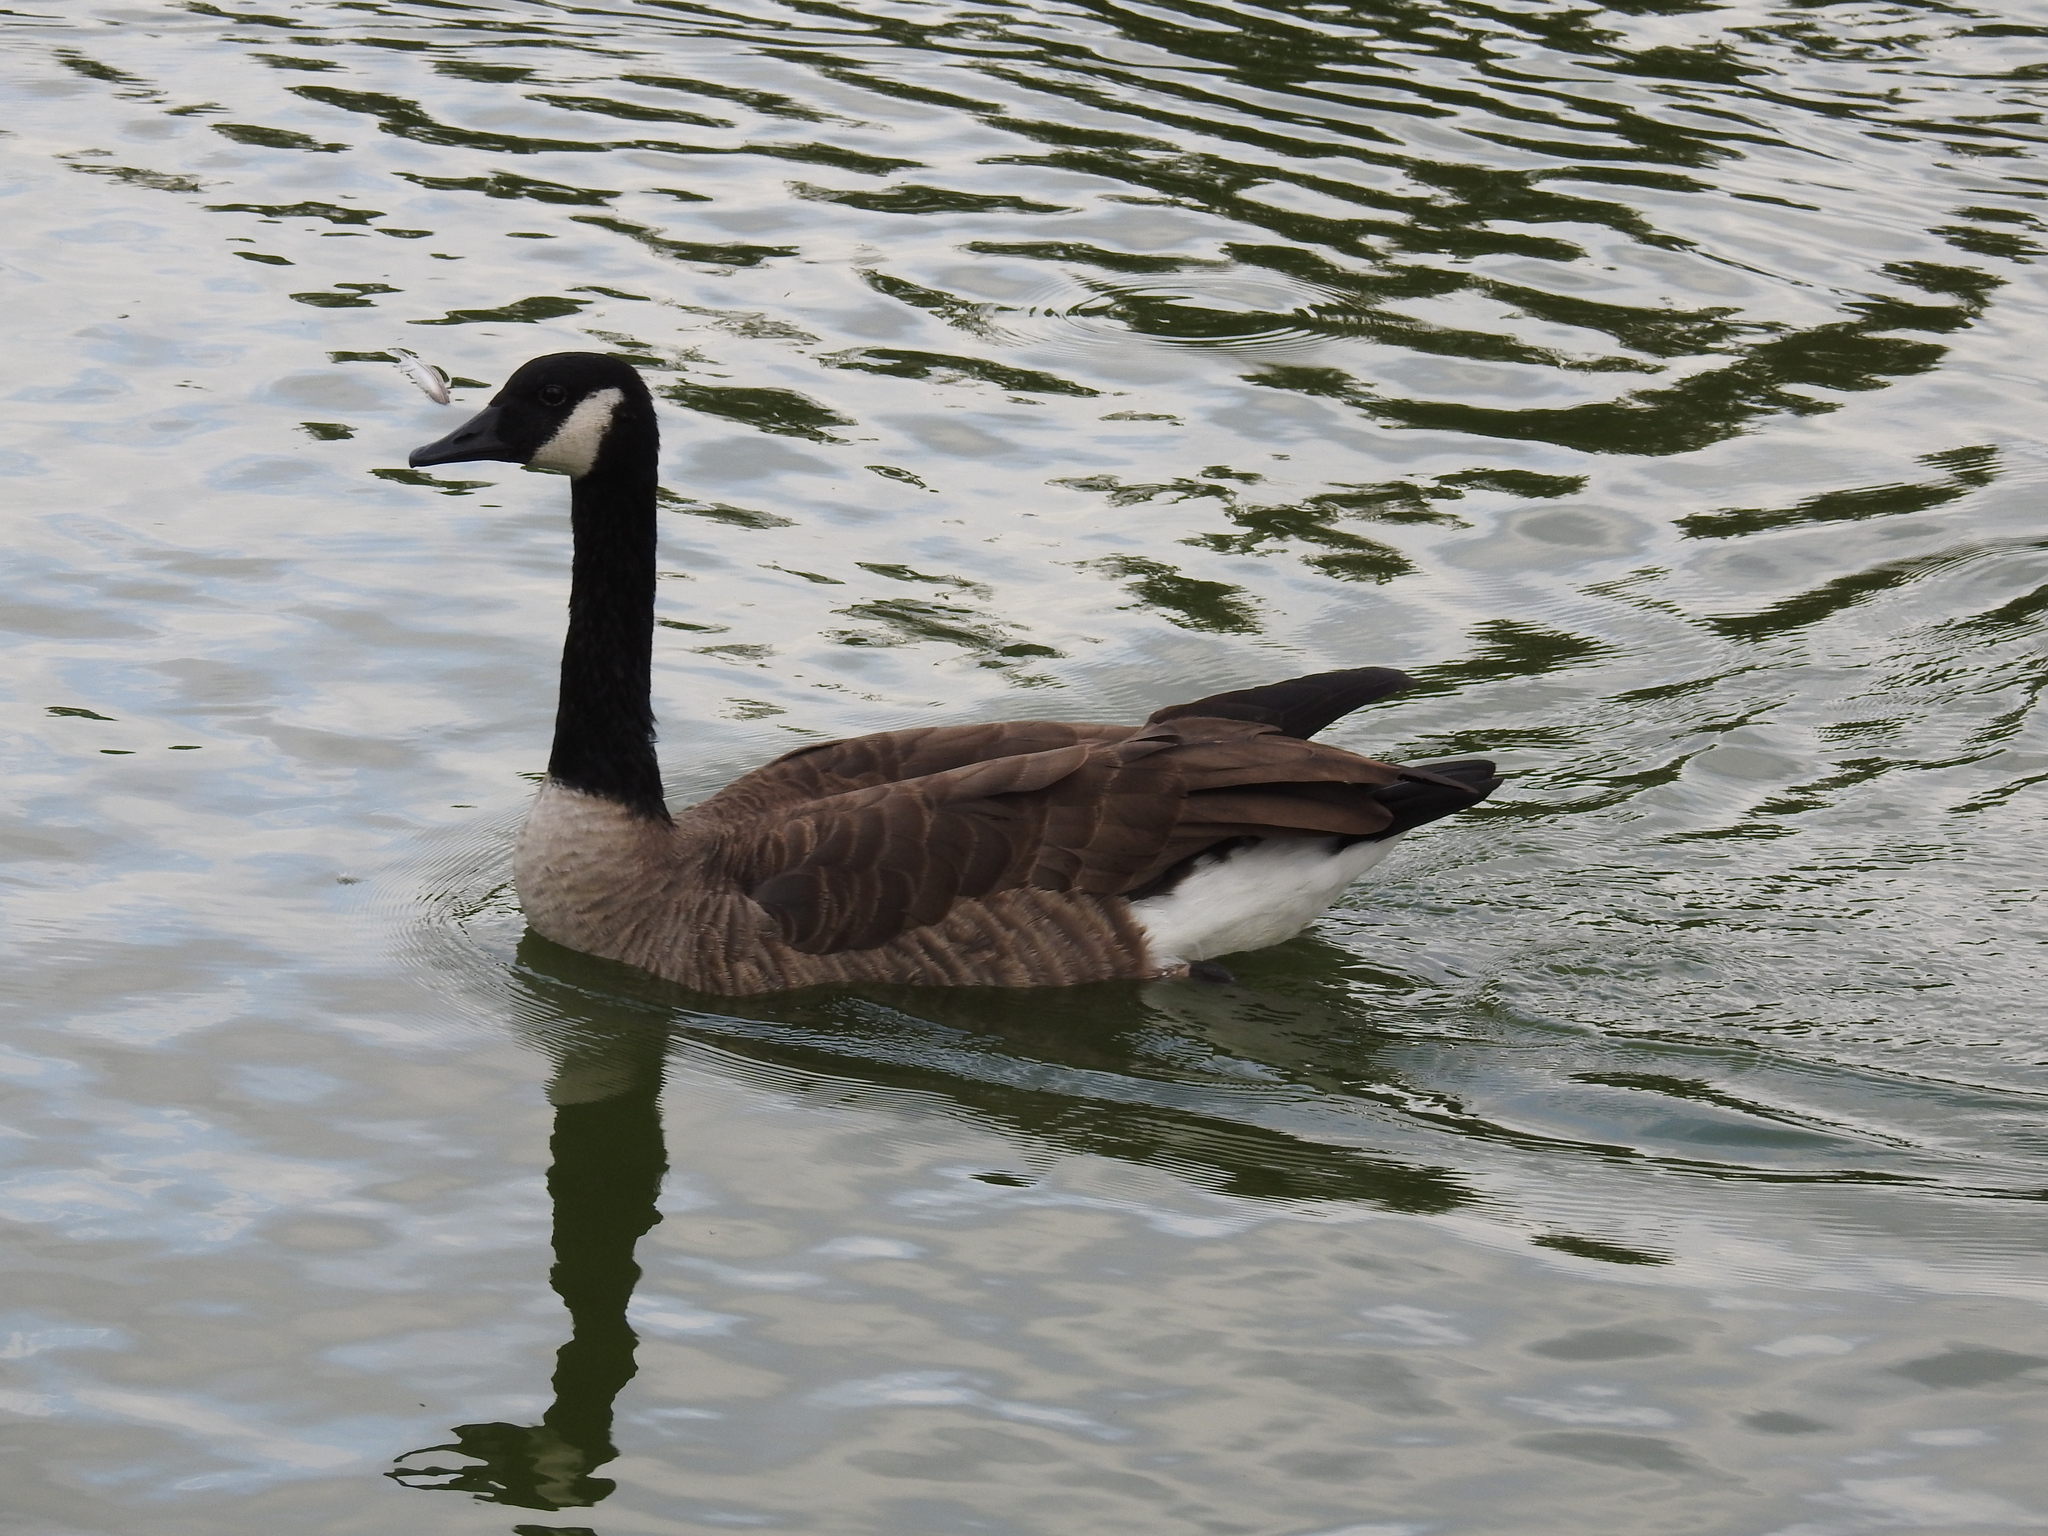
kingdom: Animalia
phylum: Chordata
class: Aves
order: Anseriformes
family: Anatidae
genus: Branta
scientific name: Branta canadensis
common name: Canada goose
